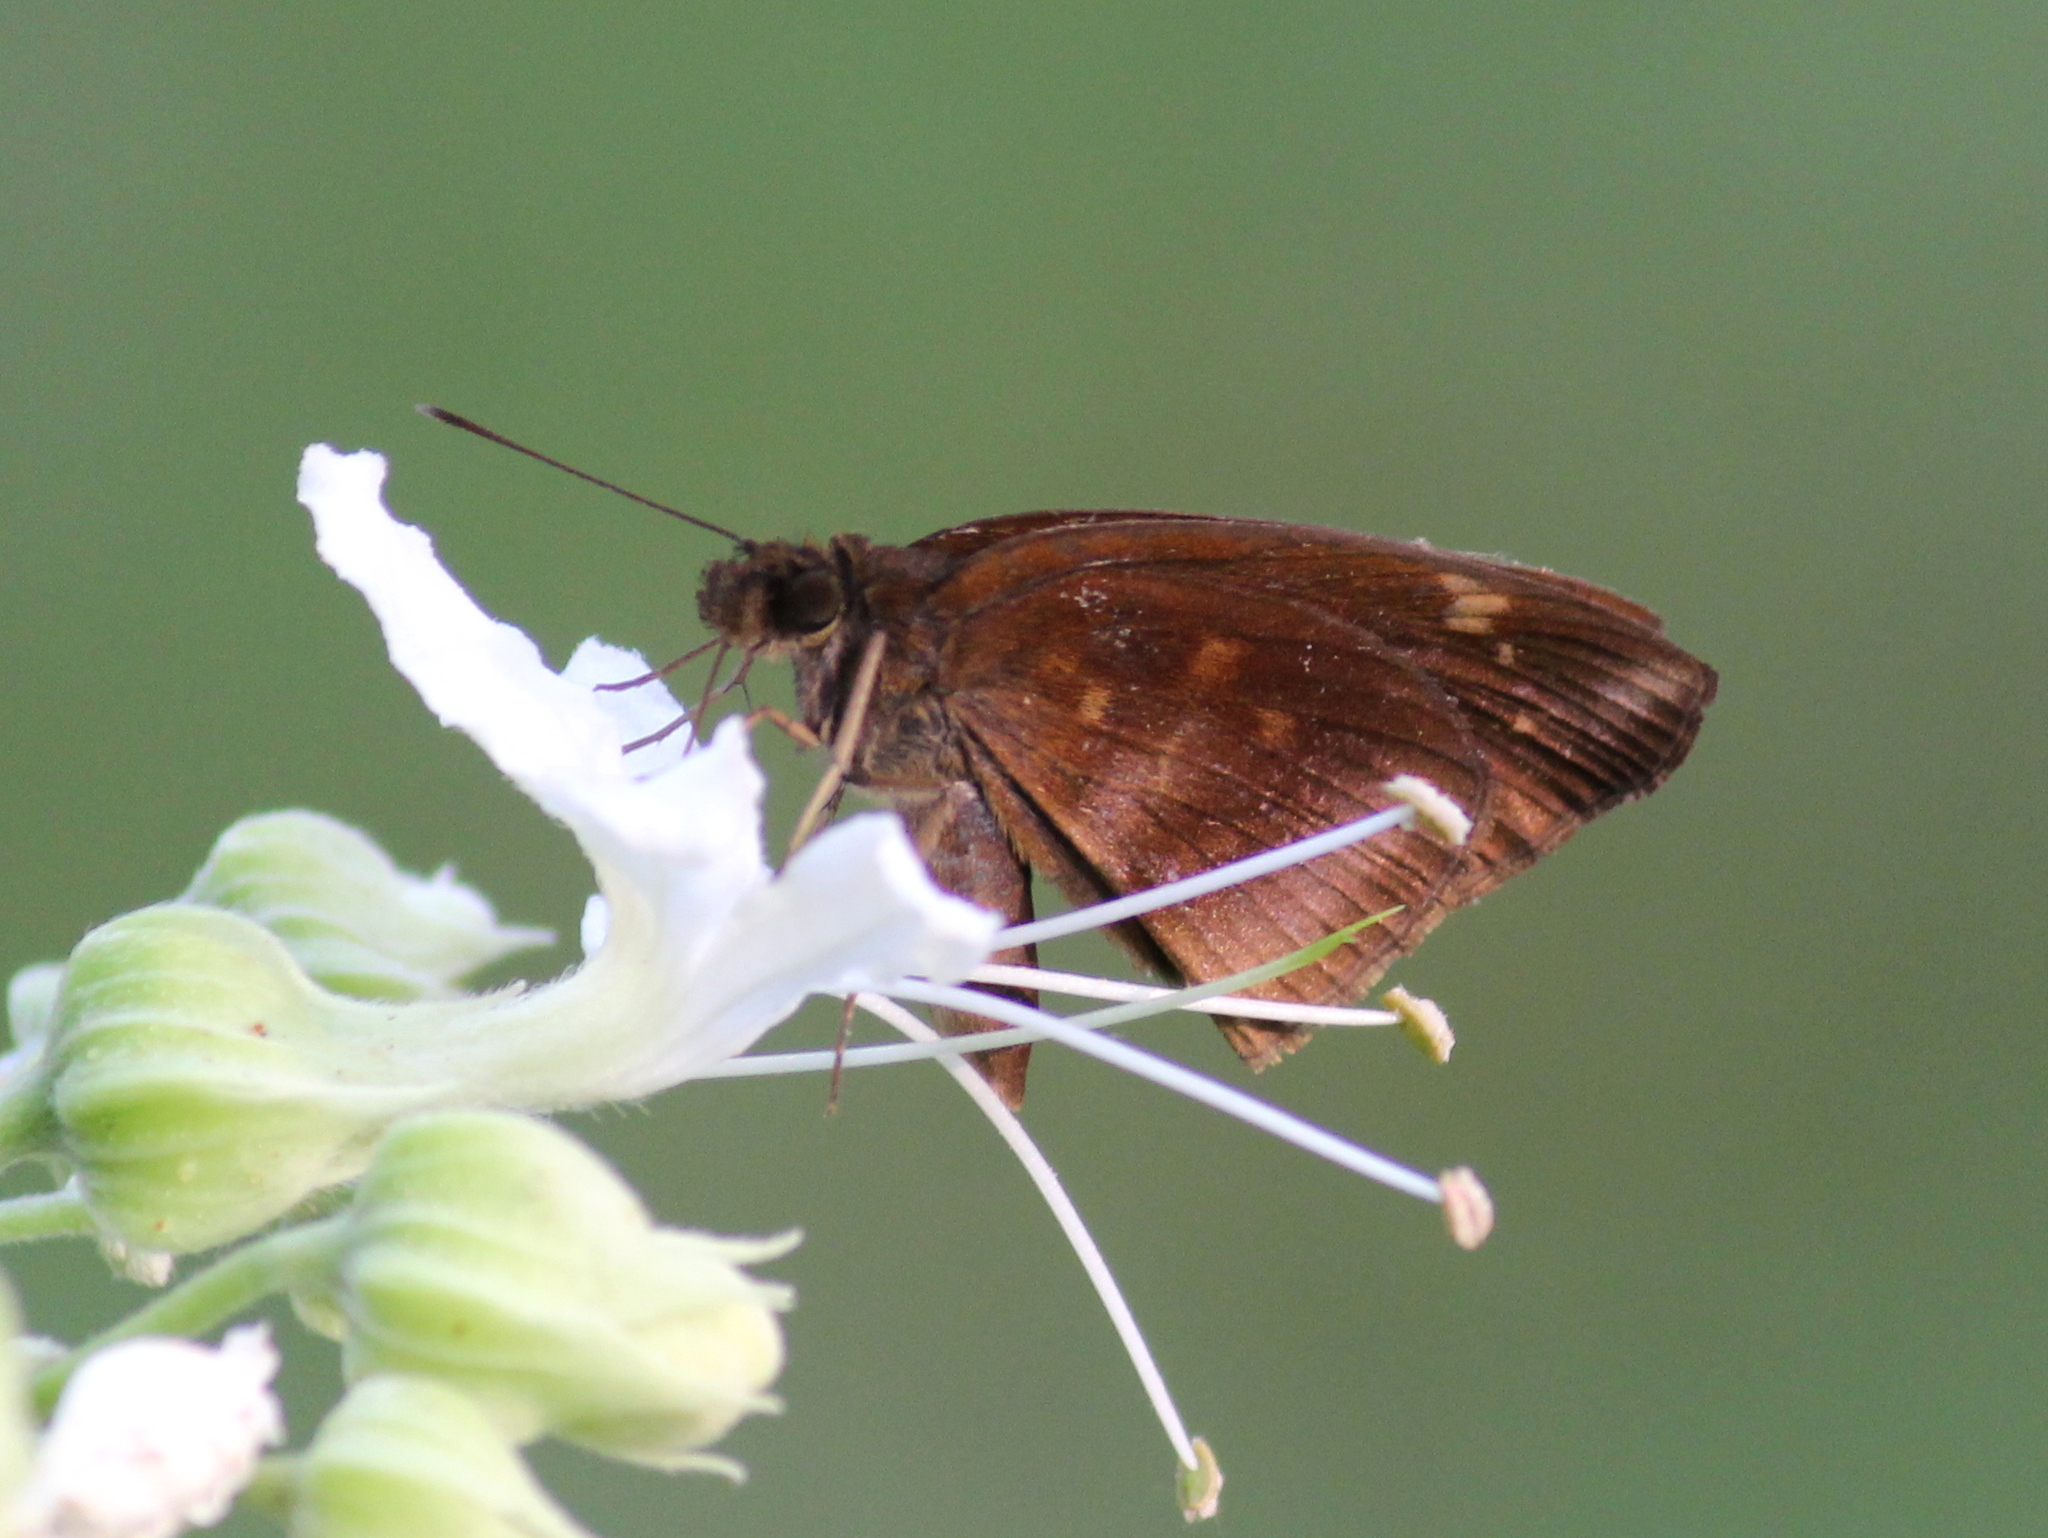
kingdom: Animalia
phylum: Arthropoda
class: Insecta
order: Lepidoptera
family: Hesperiidae
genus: Psolos
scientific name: Psolos fuligo
